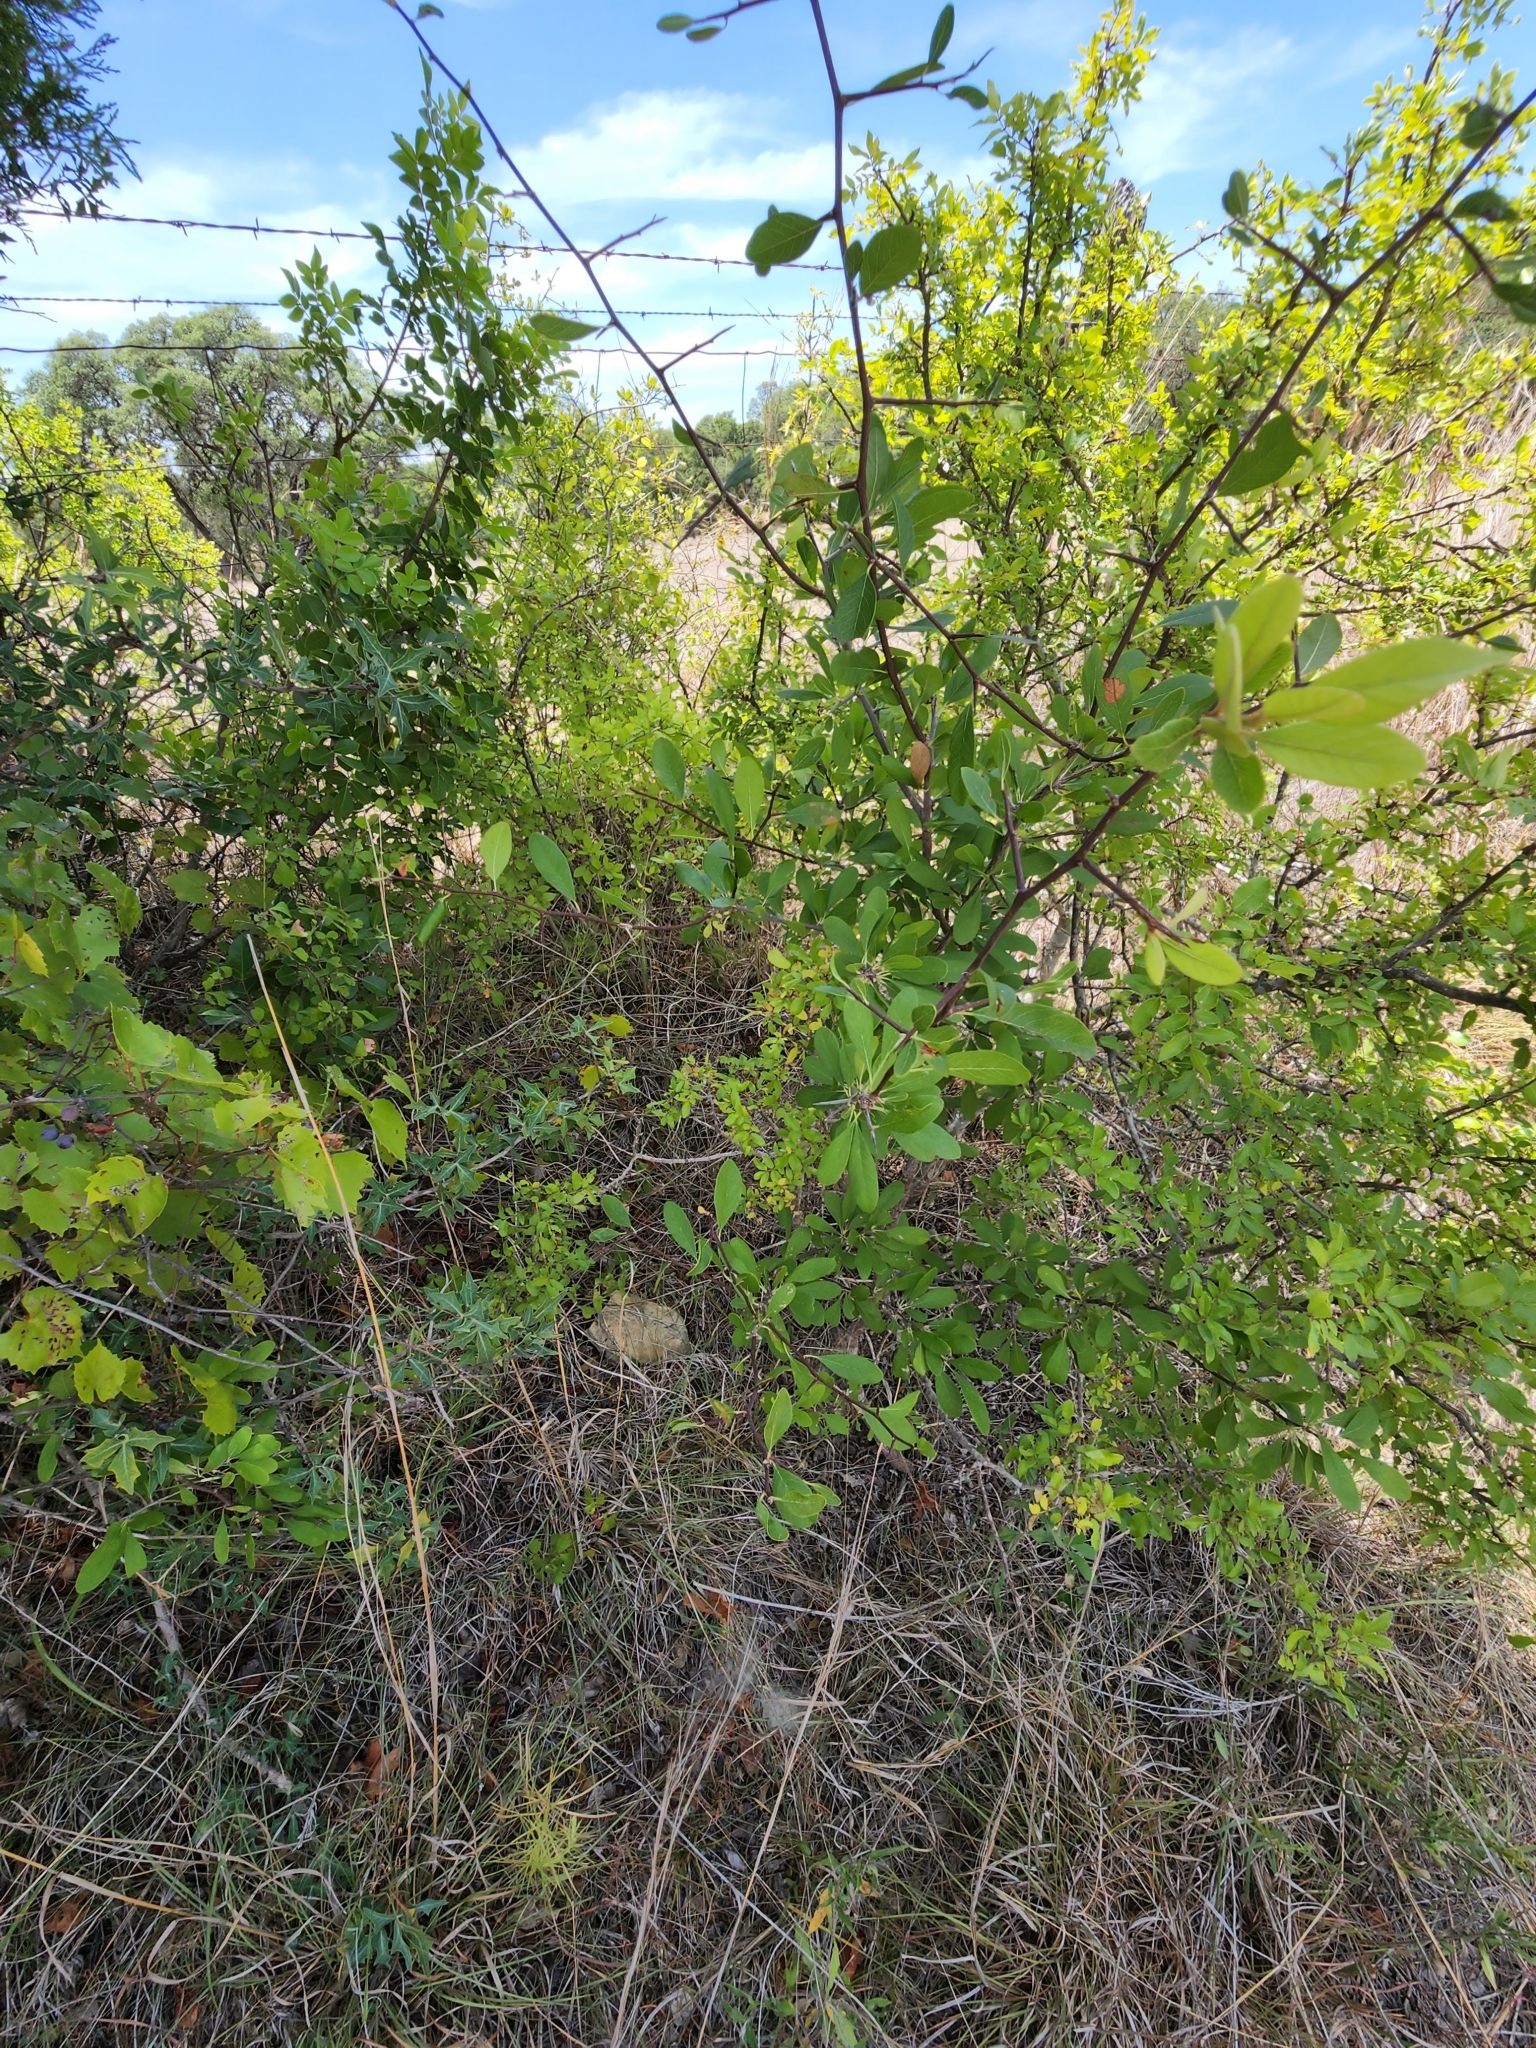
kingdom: Plantae
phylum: Tracheophyta
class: Magnoliopsida
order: Ericales
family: Sapotaceae
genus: Sideroxylon
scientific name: Sideroxylon lanuginosum
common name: Chittamwood
